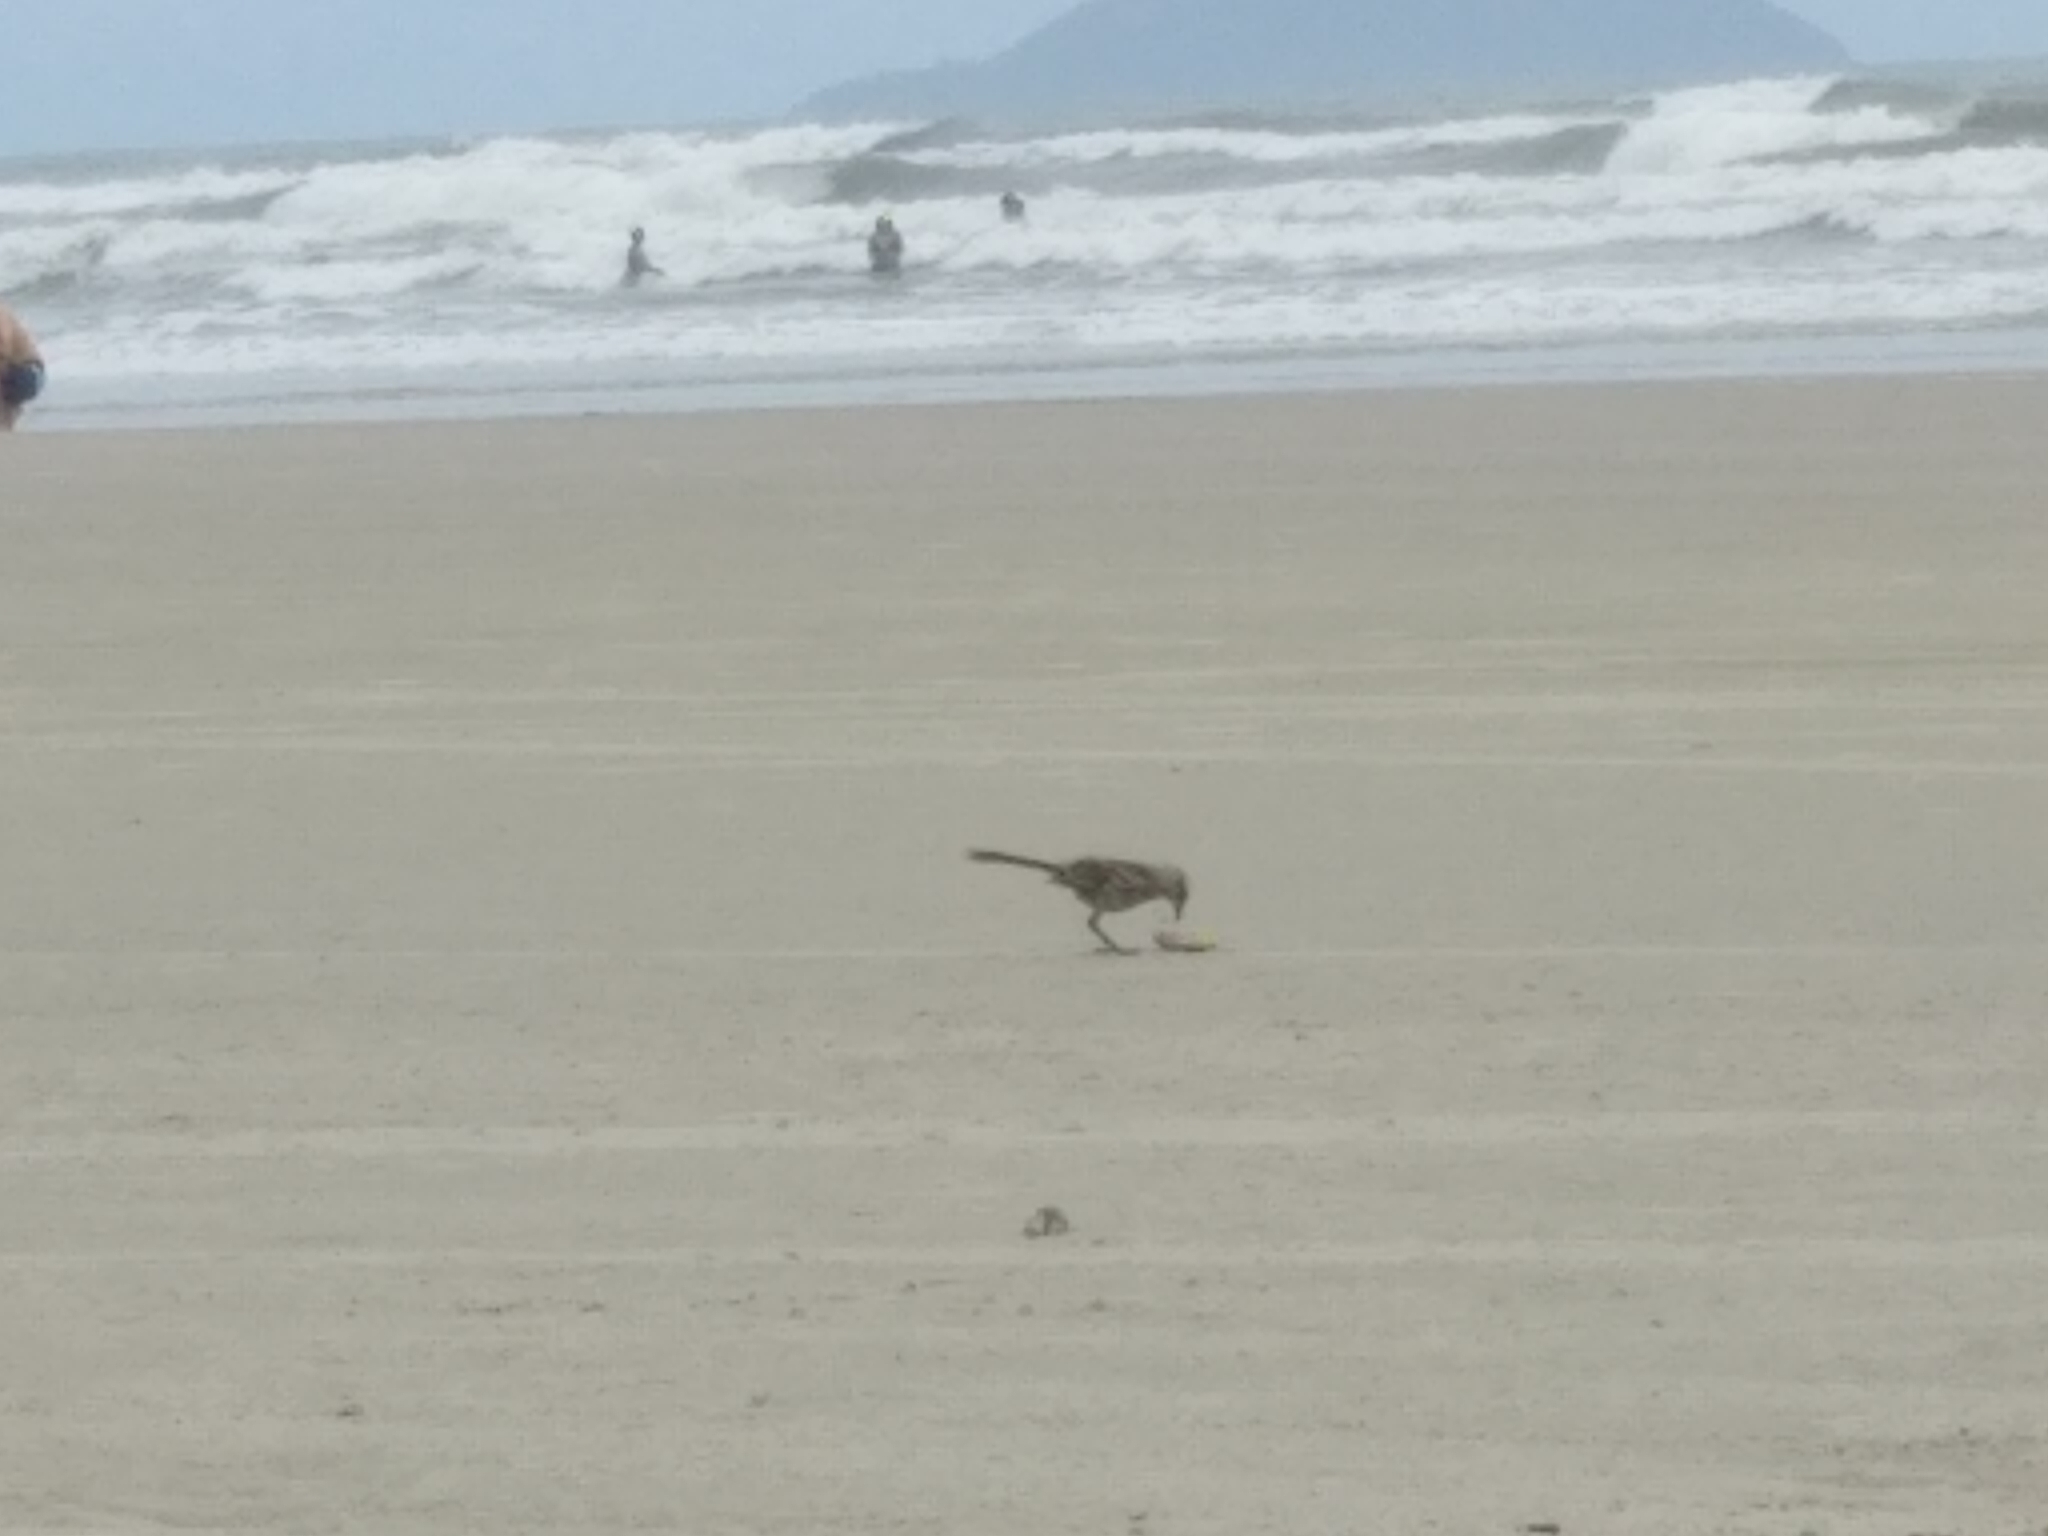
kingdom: Animalia
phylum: Chordata
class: Aves
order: Passeriformes
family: Mimidae
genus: Mimus
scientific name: Mimus saturninus
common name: Chalk-browed mockingbird
